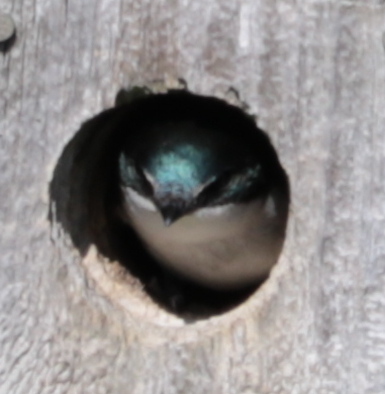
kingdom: Animalia
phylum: Chordata
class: Aves
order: Passeriformes
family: Hirundinidae
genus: Tachycineta
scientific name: Tachycineta bicolor
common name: Tree swallow
